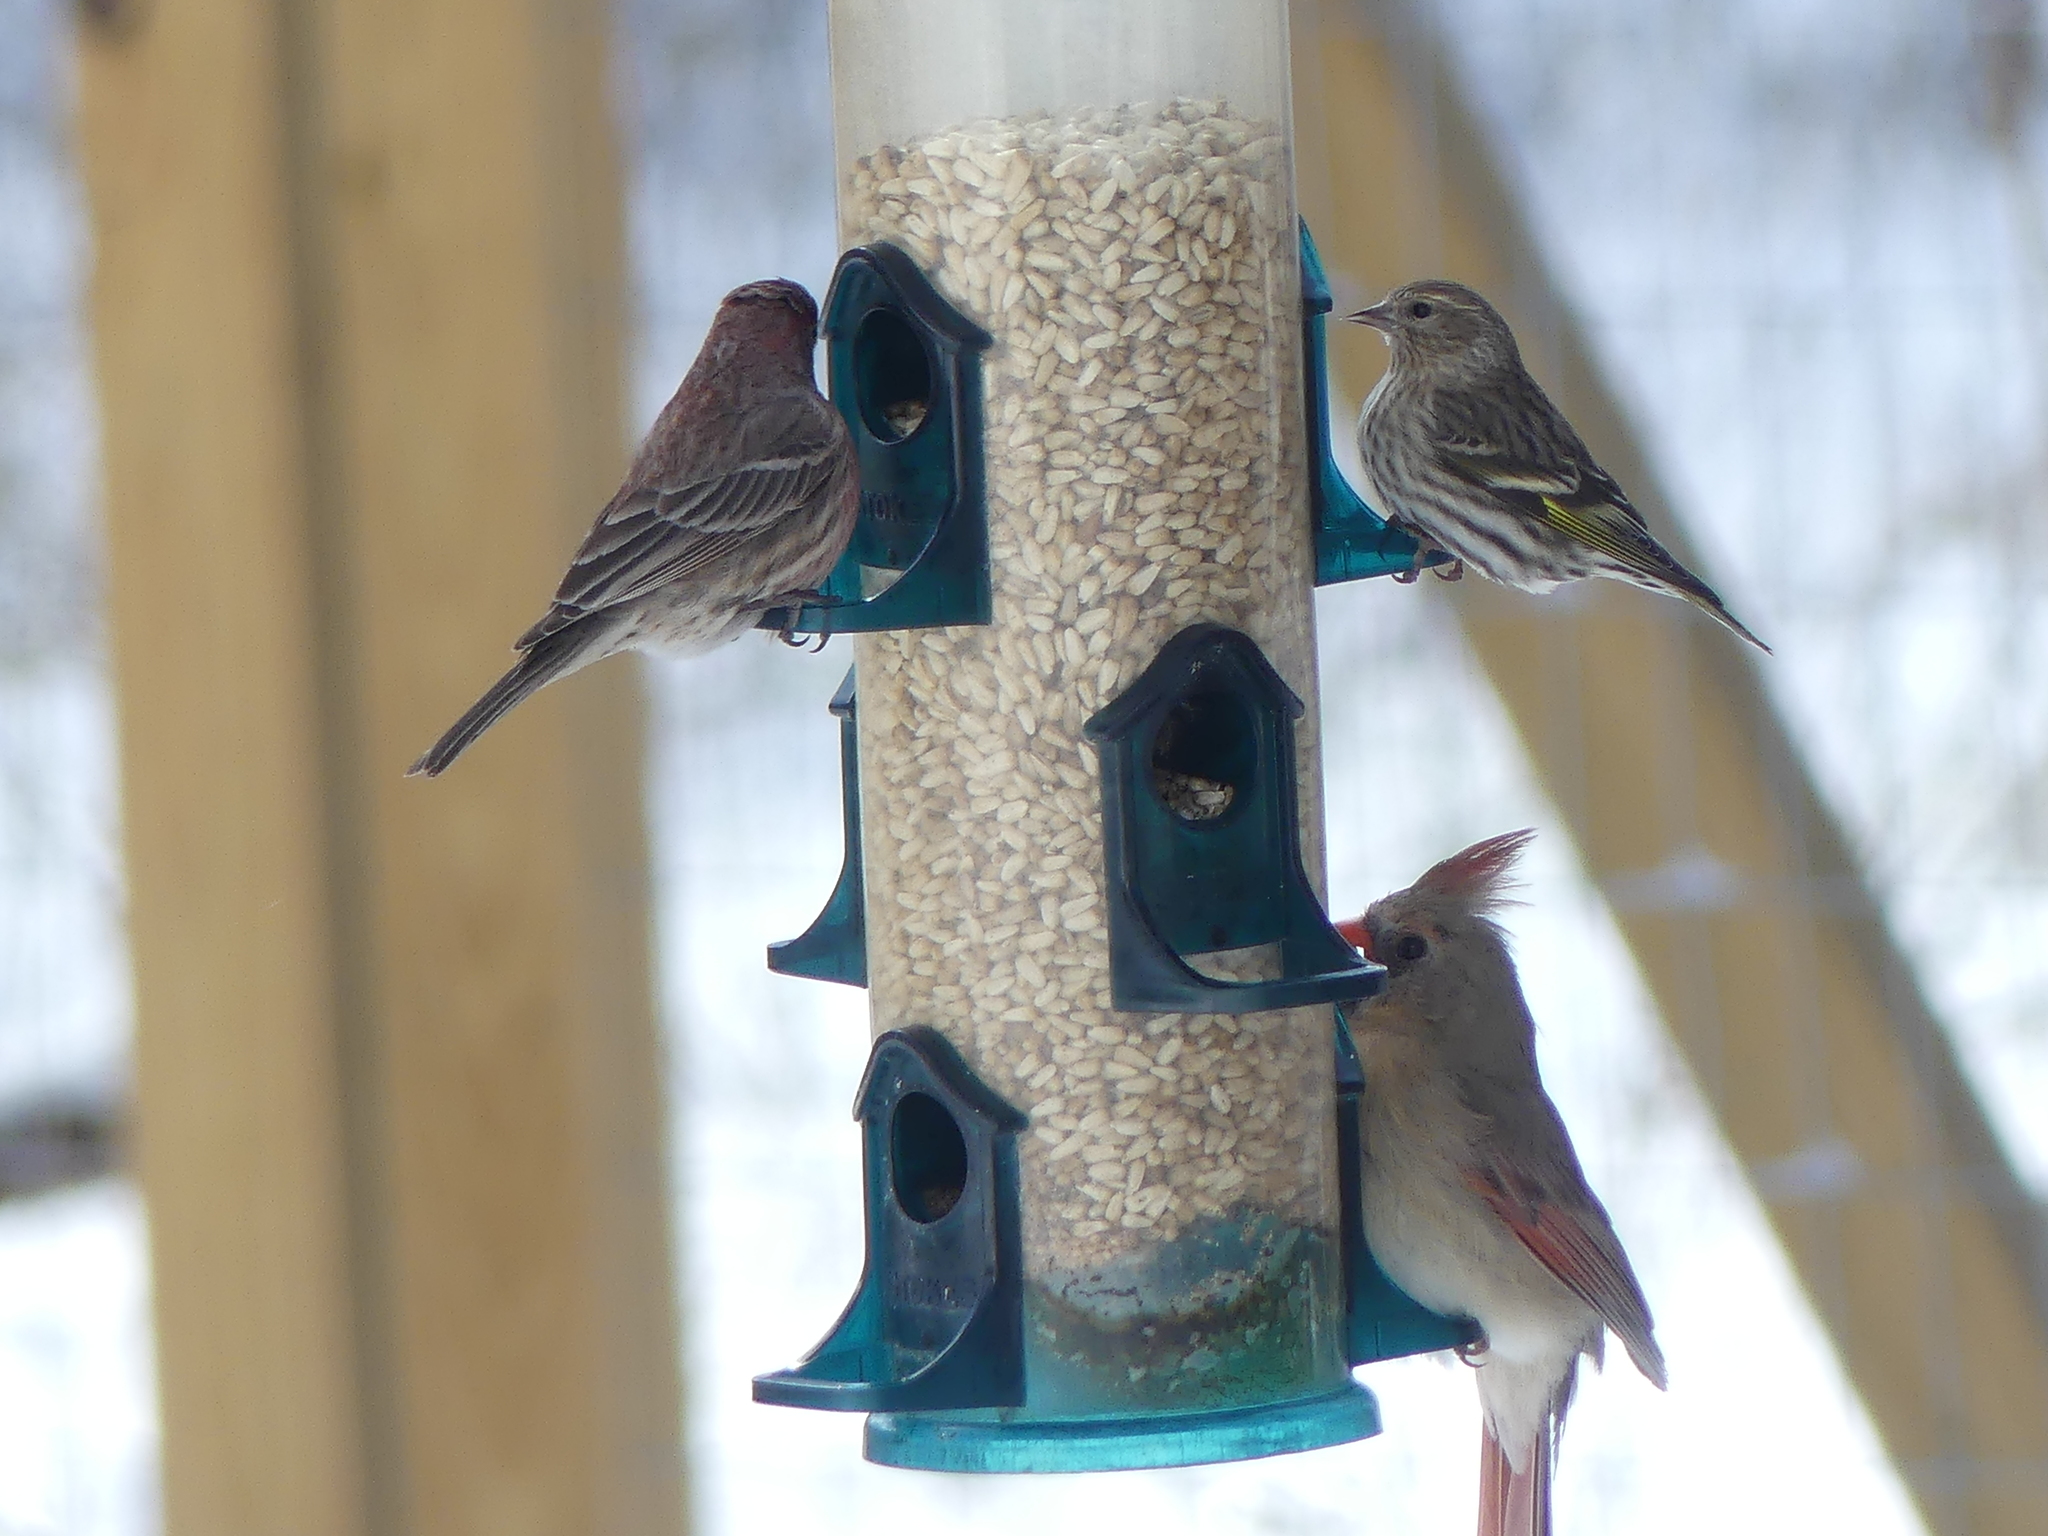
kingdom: Animalia
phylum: Chordata
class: Aves
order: Passeriformes
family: Fringillidae
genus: Spinus
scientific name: Spinus pinus
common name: Pine siskin
